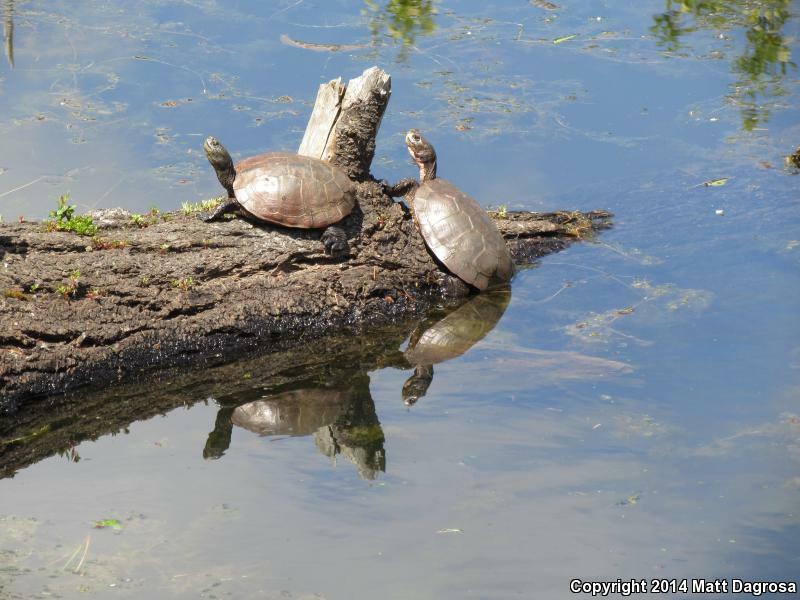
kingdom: Animalia
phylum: Chordata
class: Testudines
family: Emydidae
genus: Actinemys
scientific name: Actinemys marmorata
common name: Western pond turtle
